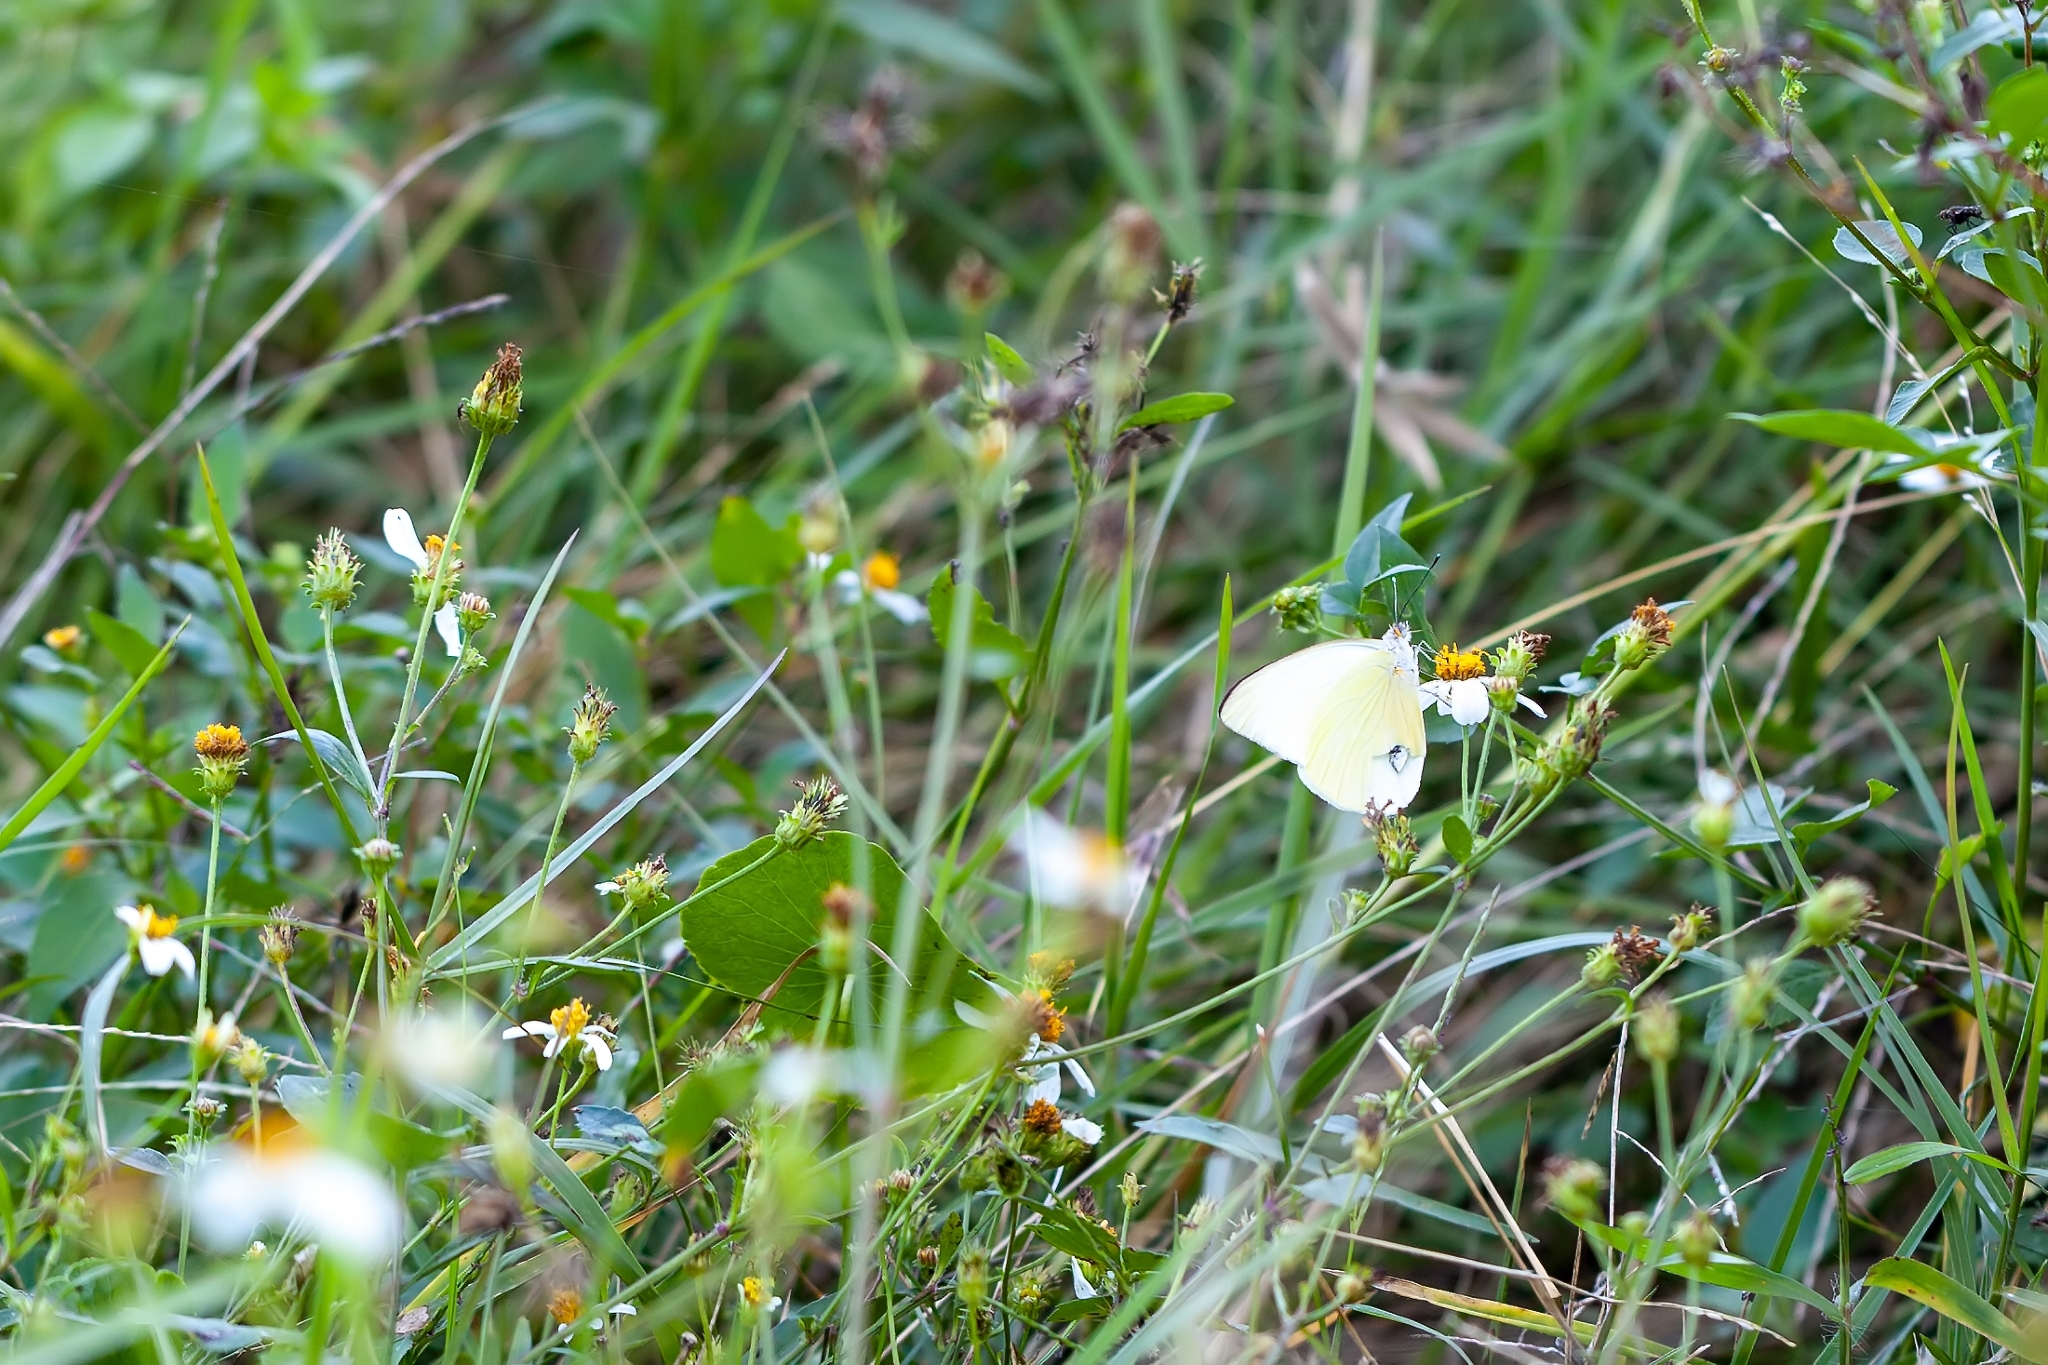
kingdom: Animalia
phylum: Arthropoda
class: Insecta
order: Lepidoptera
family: Pieridae
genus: Ascia
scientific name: Ascia monuste
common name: Great southern white
